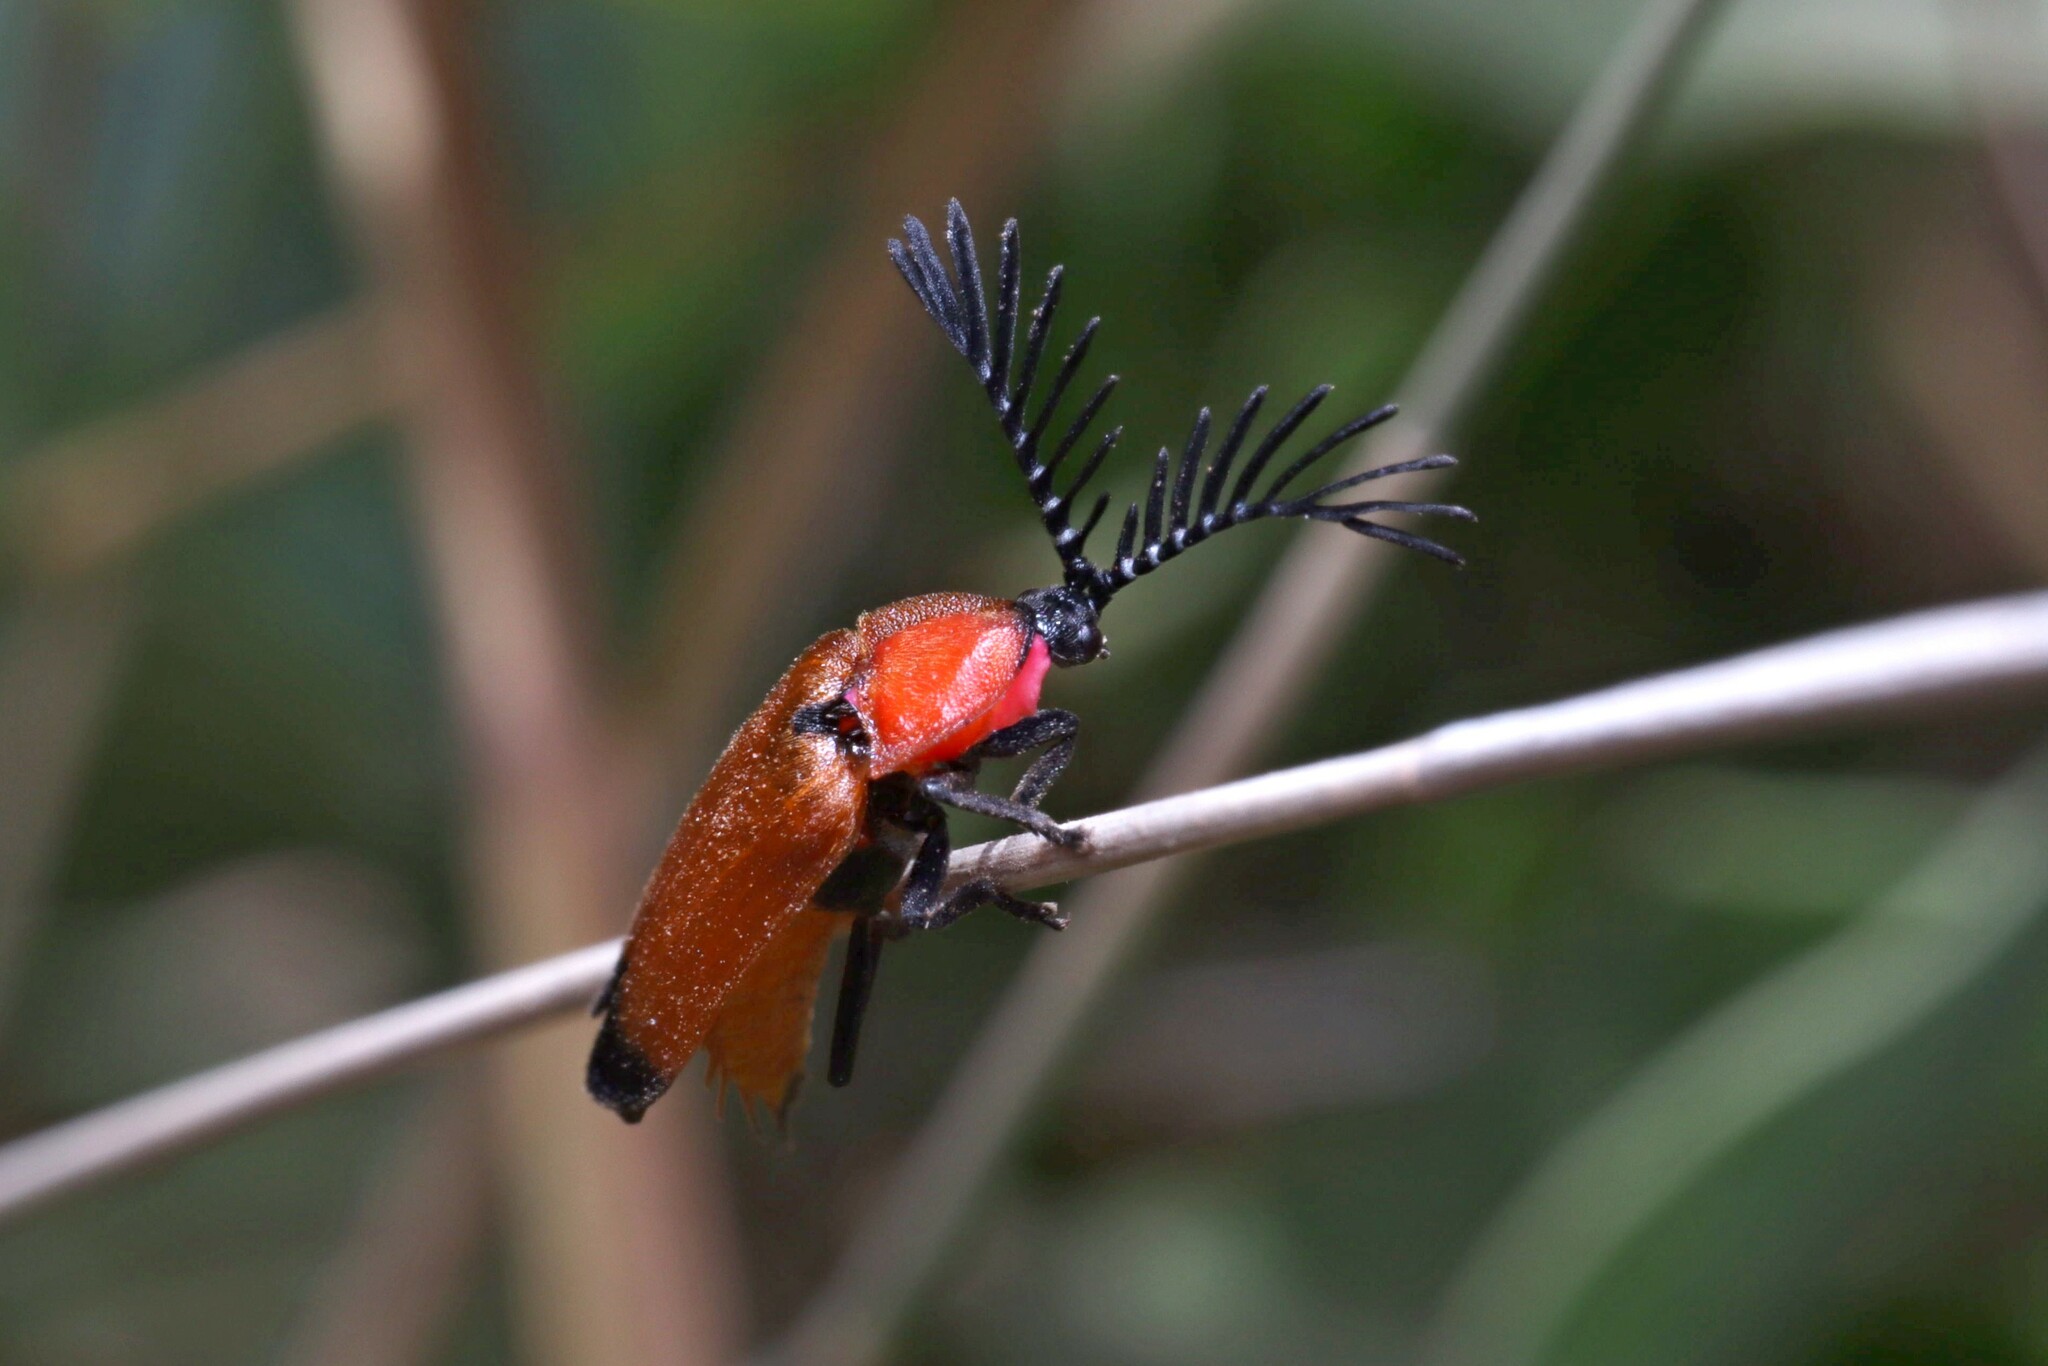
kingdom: Animalia
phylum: Arthropoda
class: Insecta
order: Coleoptera
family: Lampyridae
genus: Cladodes
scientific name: Cladodes flabellatus
